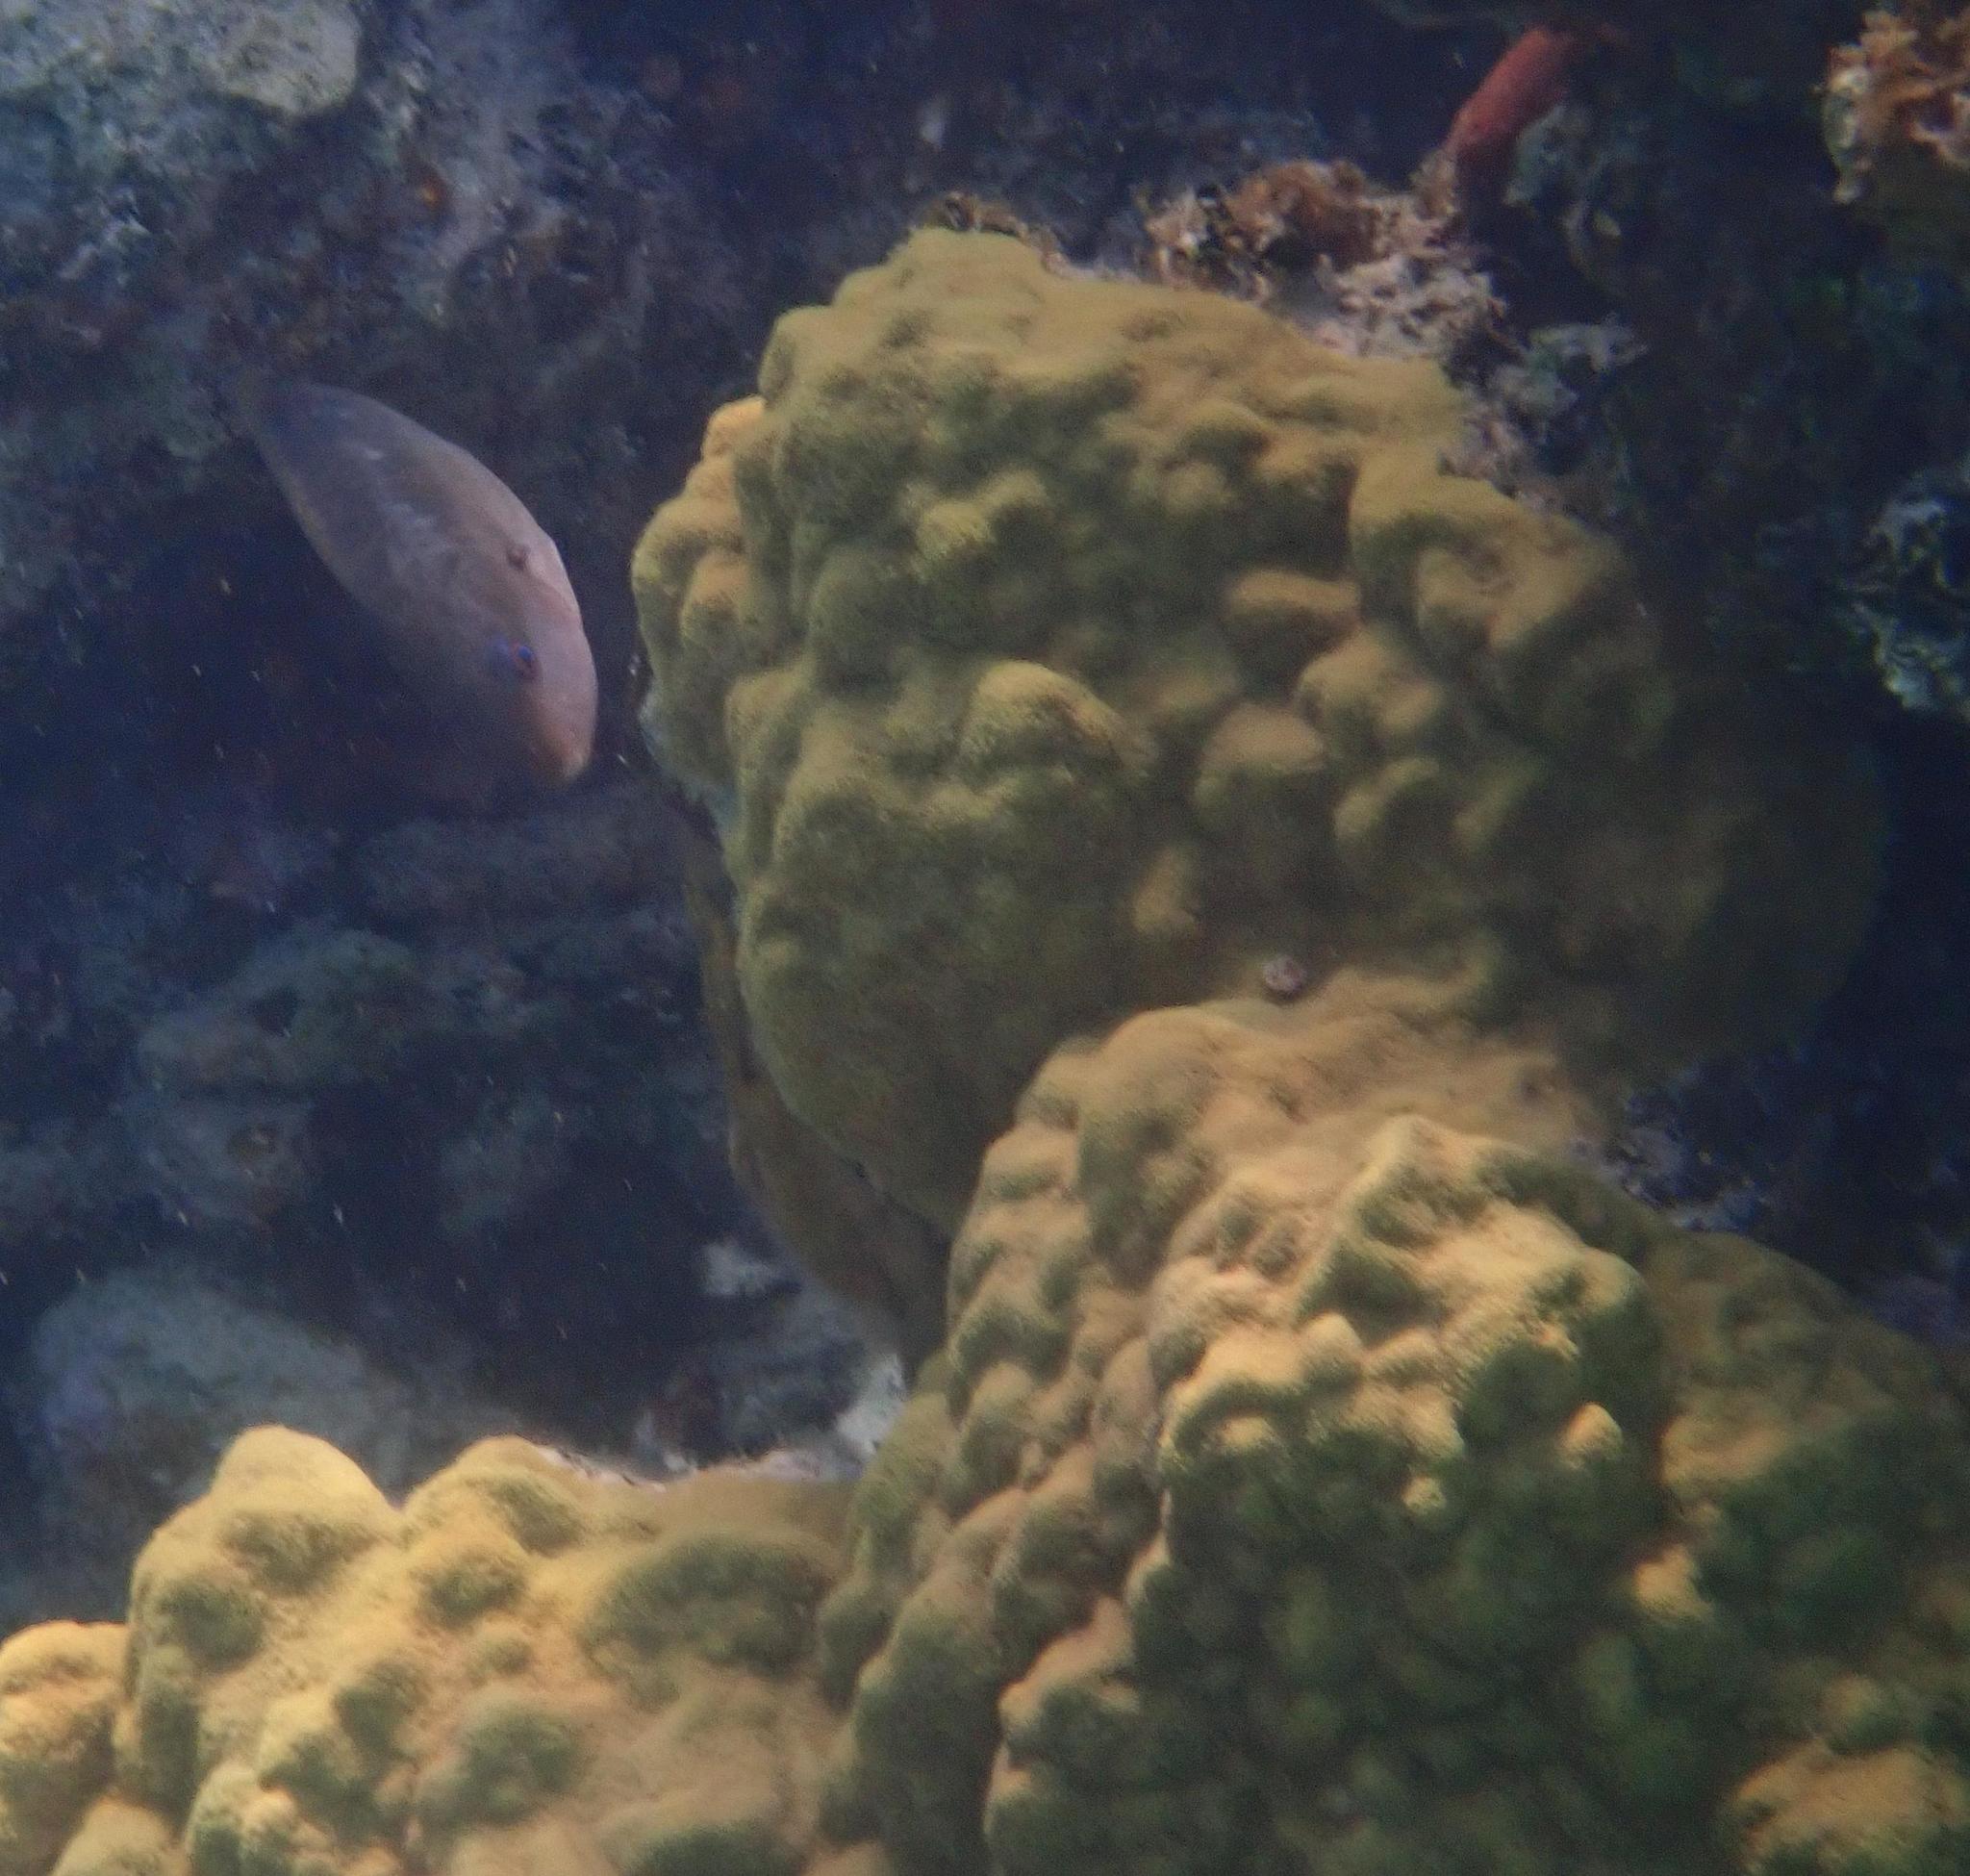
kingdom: Animalia
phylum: Cnidaria
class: Anthozoa
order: Scleractinia
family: Poritidae
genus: Porites
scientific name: Porites astreoides
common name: Mustard hill coral
